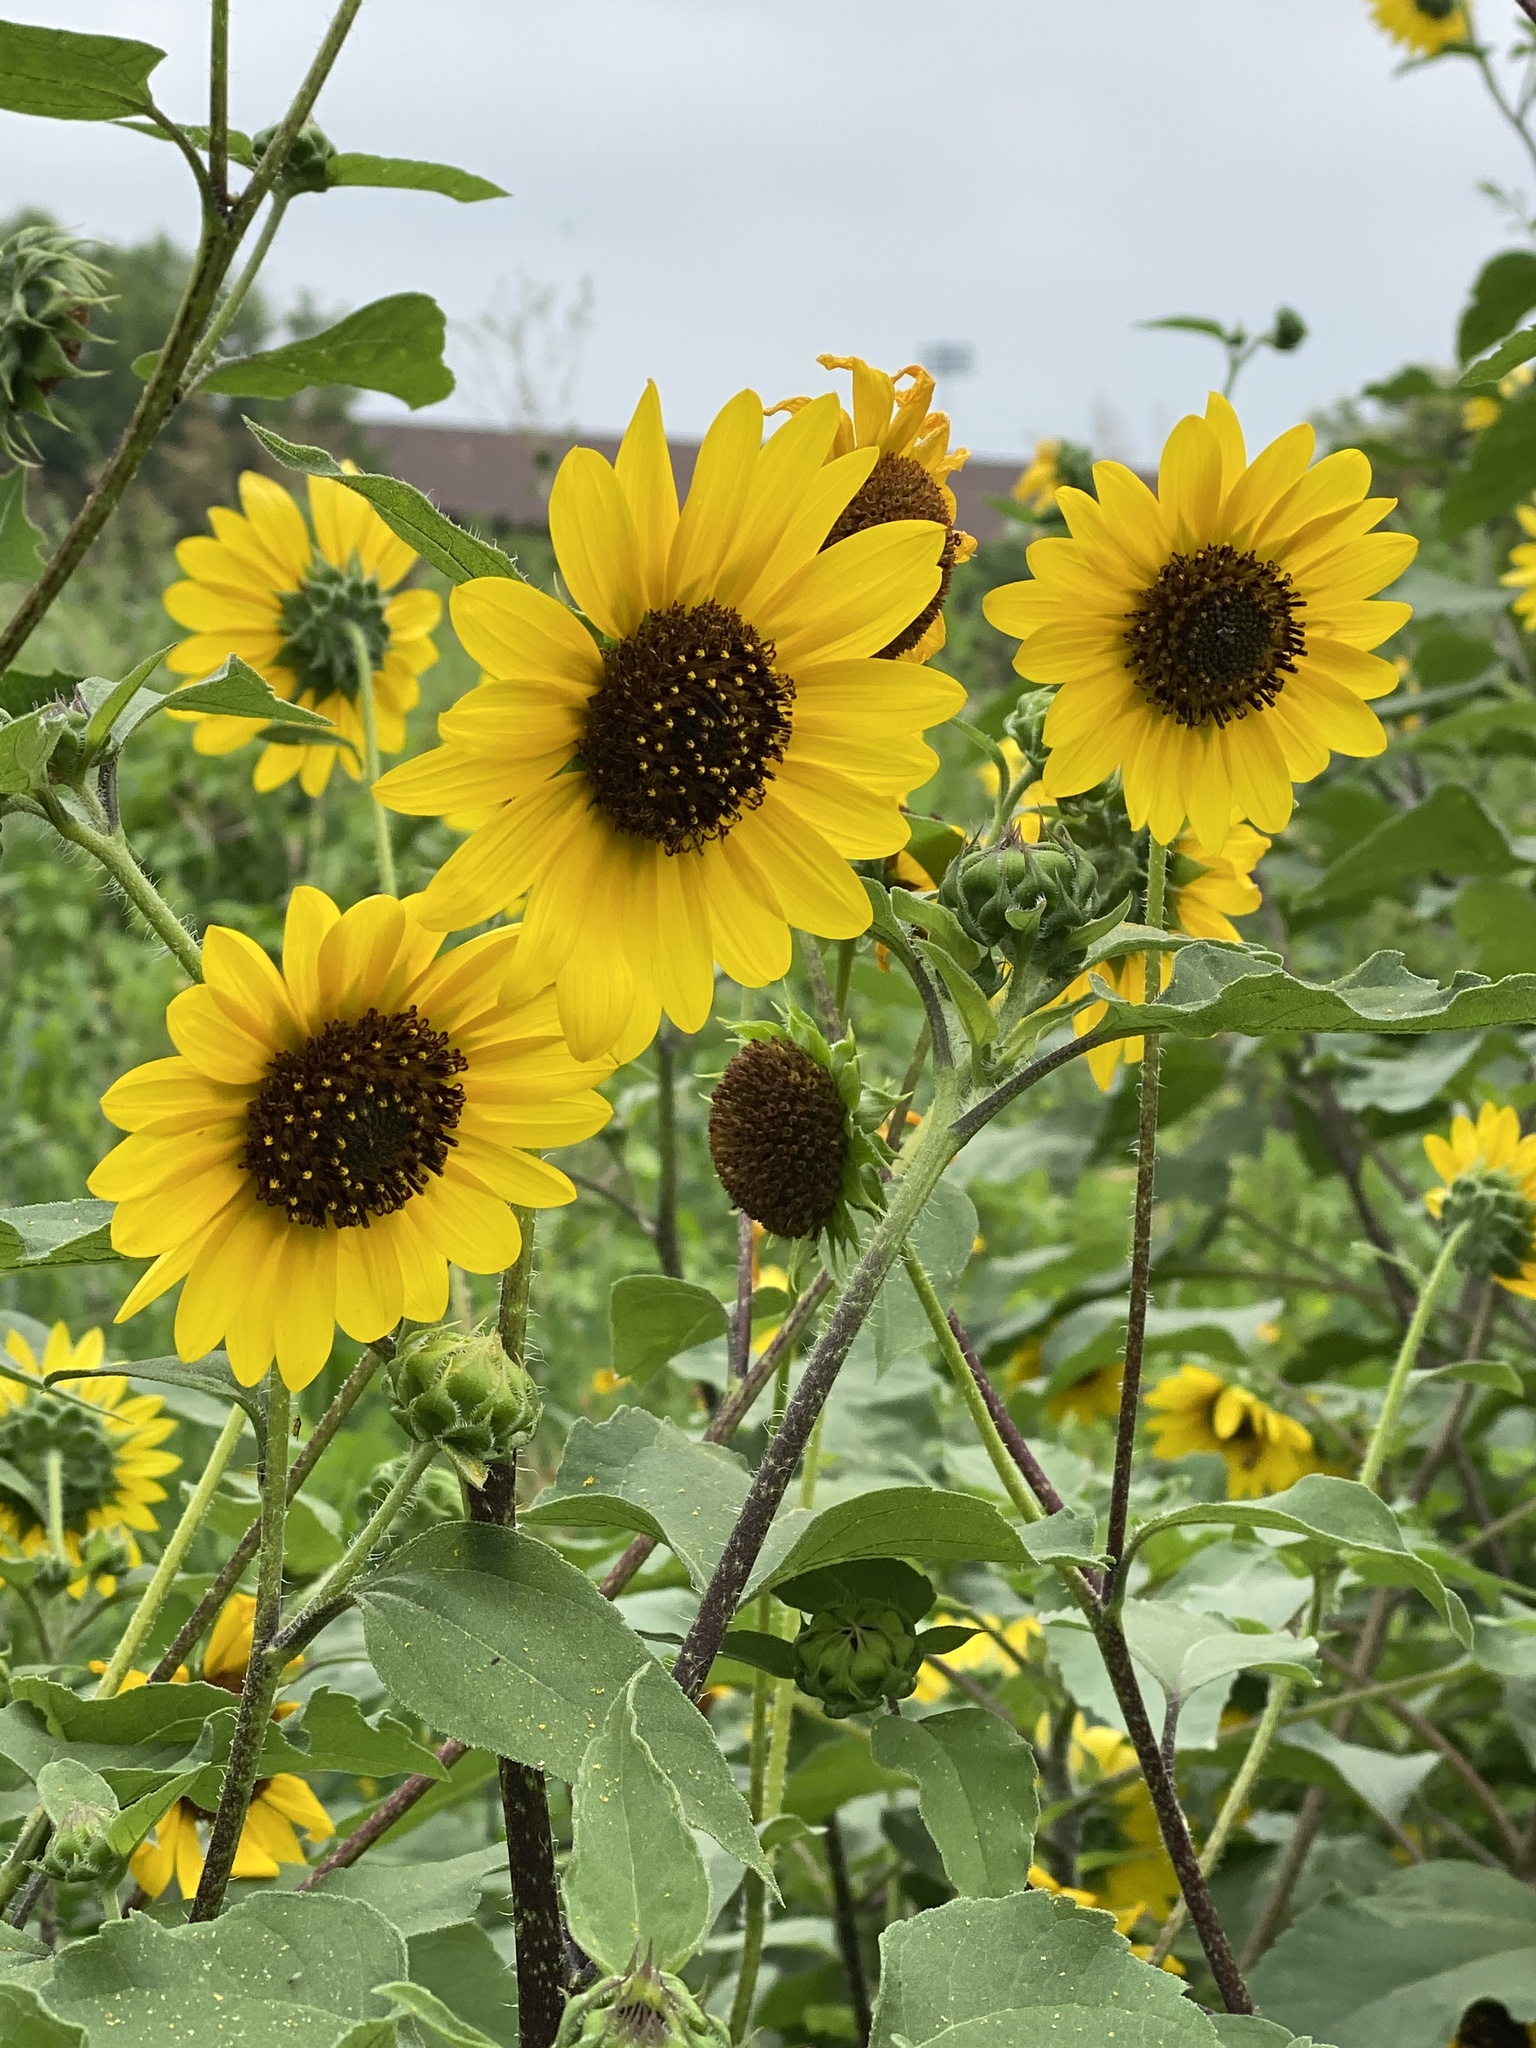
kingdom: Plantae
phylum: Tracheophyta
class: Magnoliopsida
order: Asterales
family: Asteraceae
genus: Helianthus
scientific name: Helianthus annuus
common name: Sunflower
